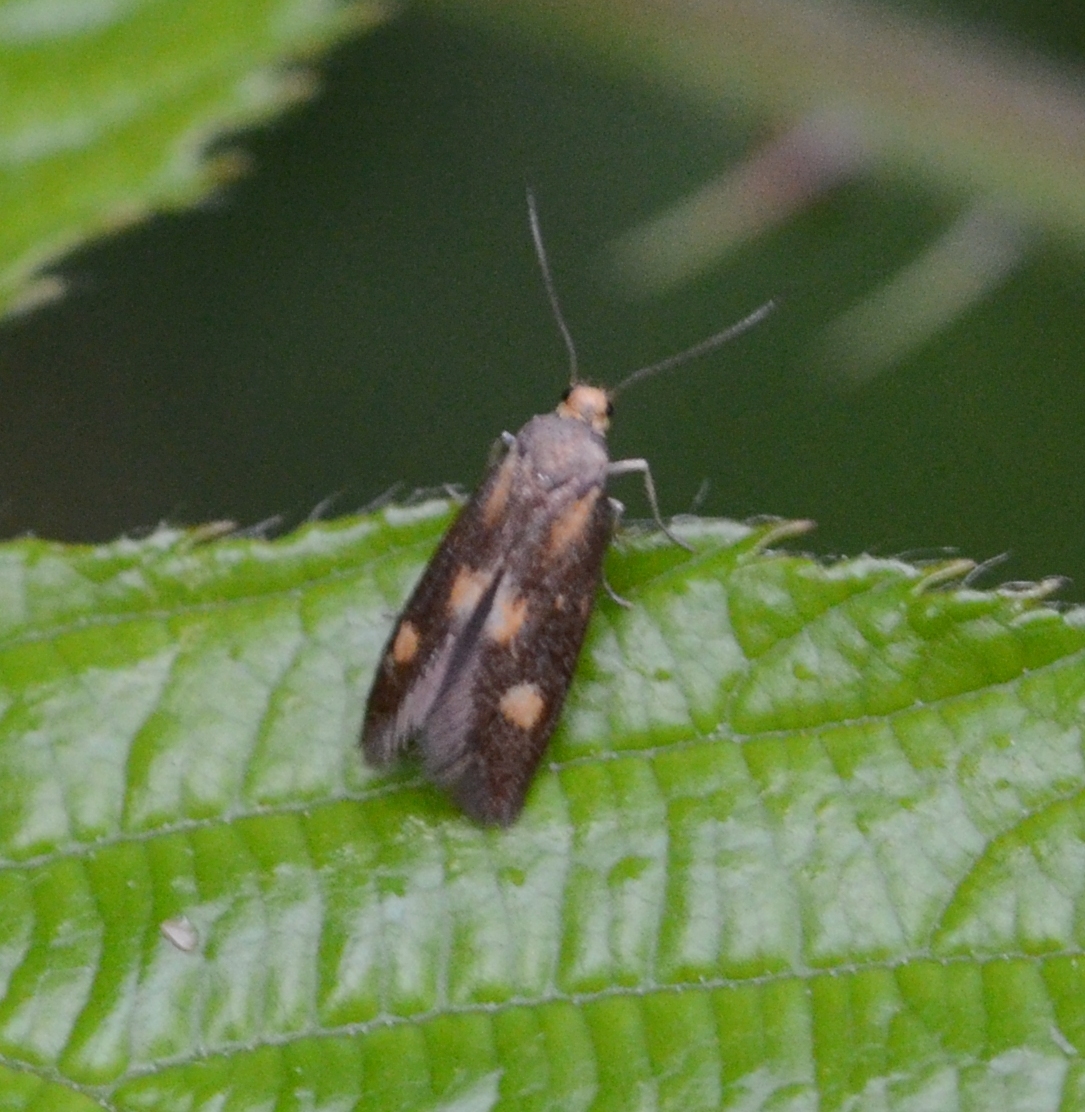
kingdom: Animalia
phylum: Arthropoda
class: Insecta
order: Lepidoptera
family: Epermeniidae
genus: Phaulernis
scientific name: Phaulernis fulviguttella
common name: Yellow-spotted lance-wing
